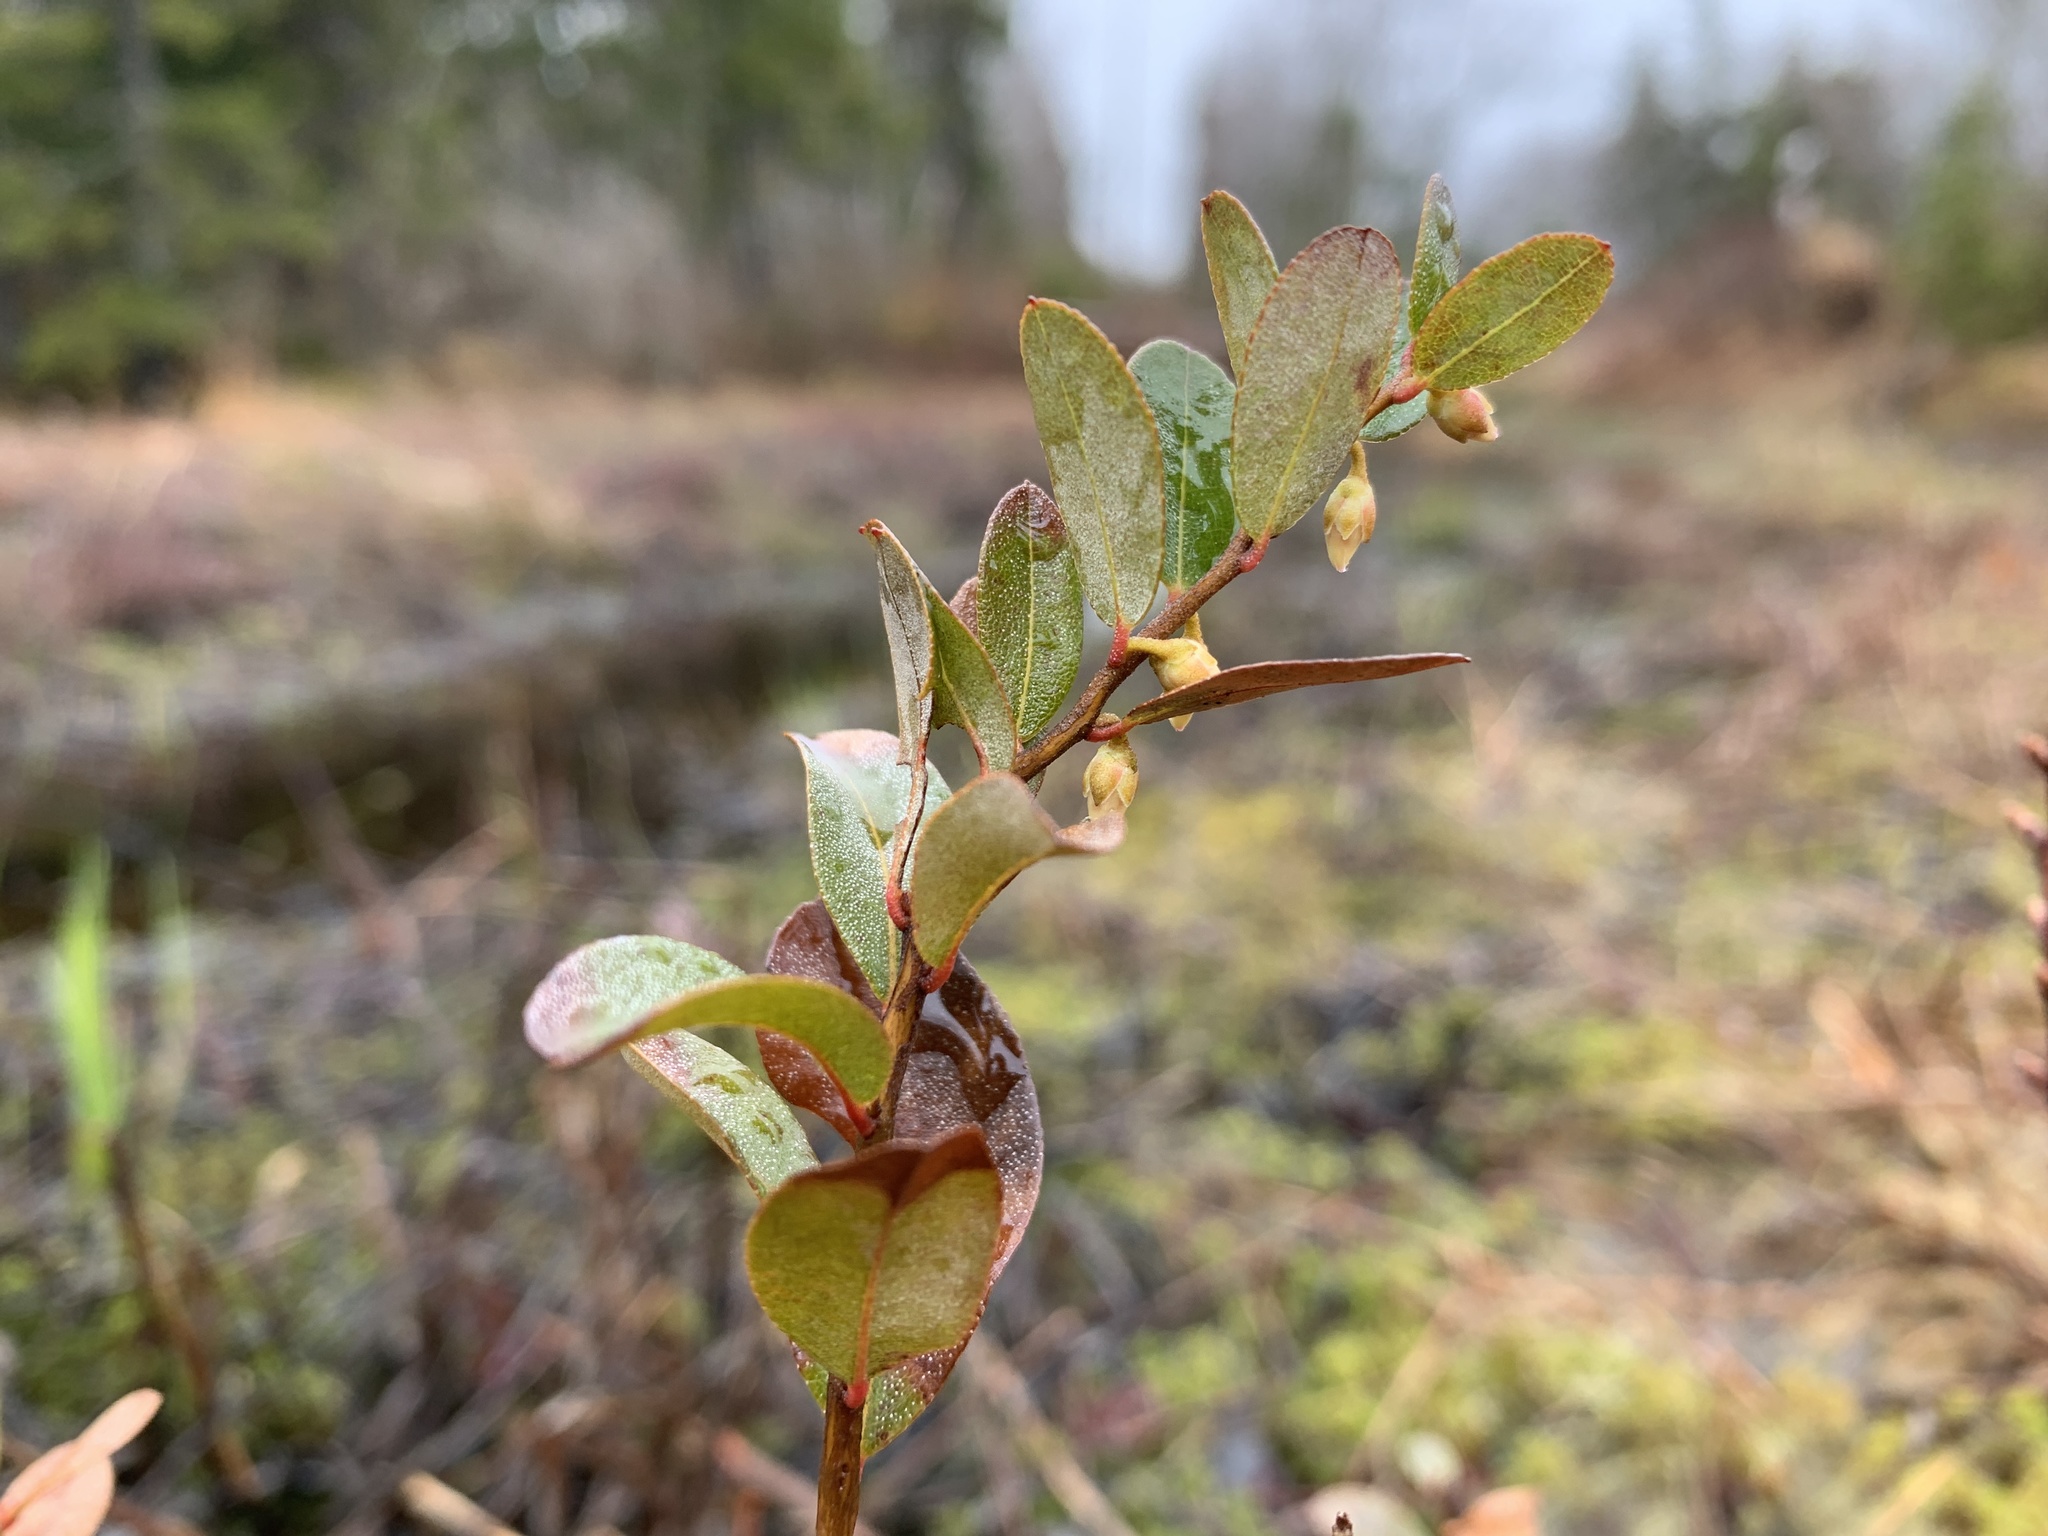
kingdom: Plantae
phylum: Tracheophyta
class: Magnoliopsida
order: Ericales
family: Ericaceae
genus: Chamaedaphne
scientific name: Chamaedaphne calyculata
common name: Leatherleaf
